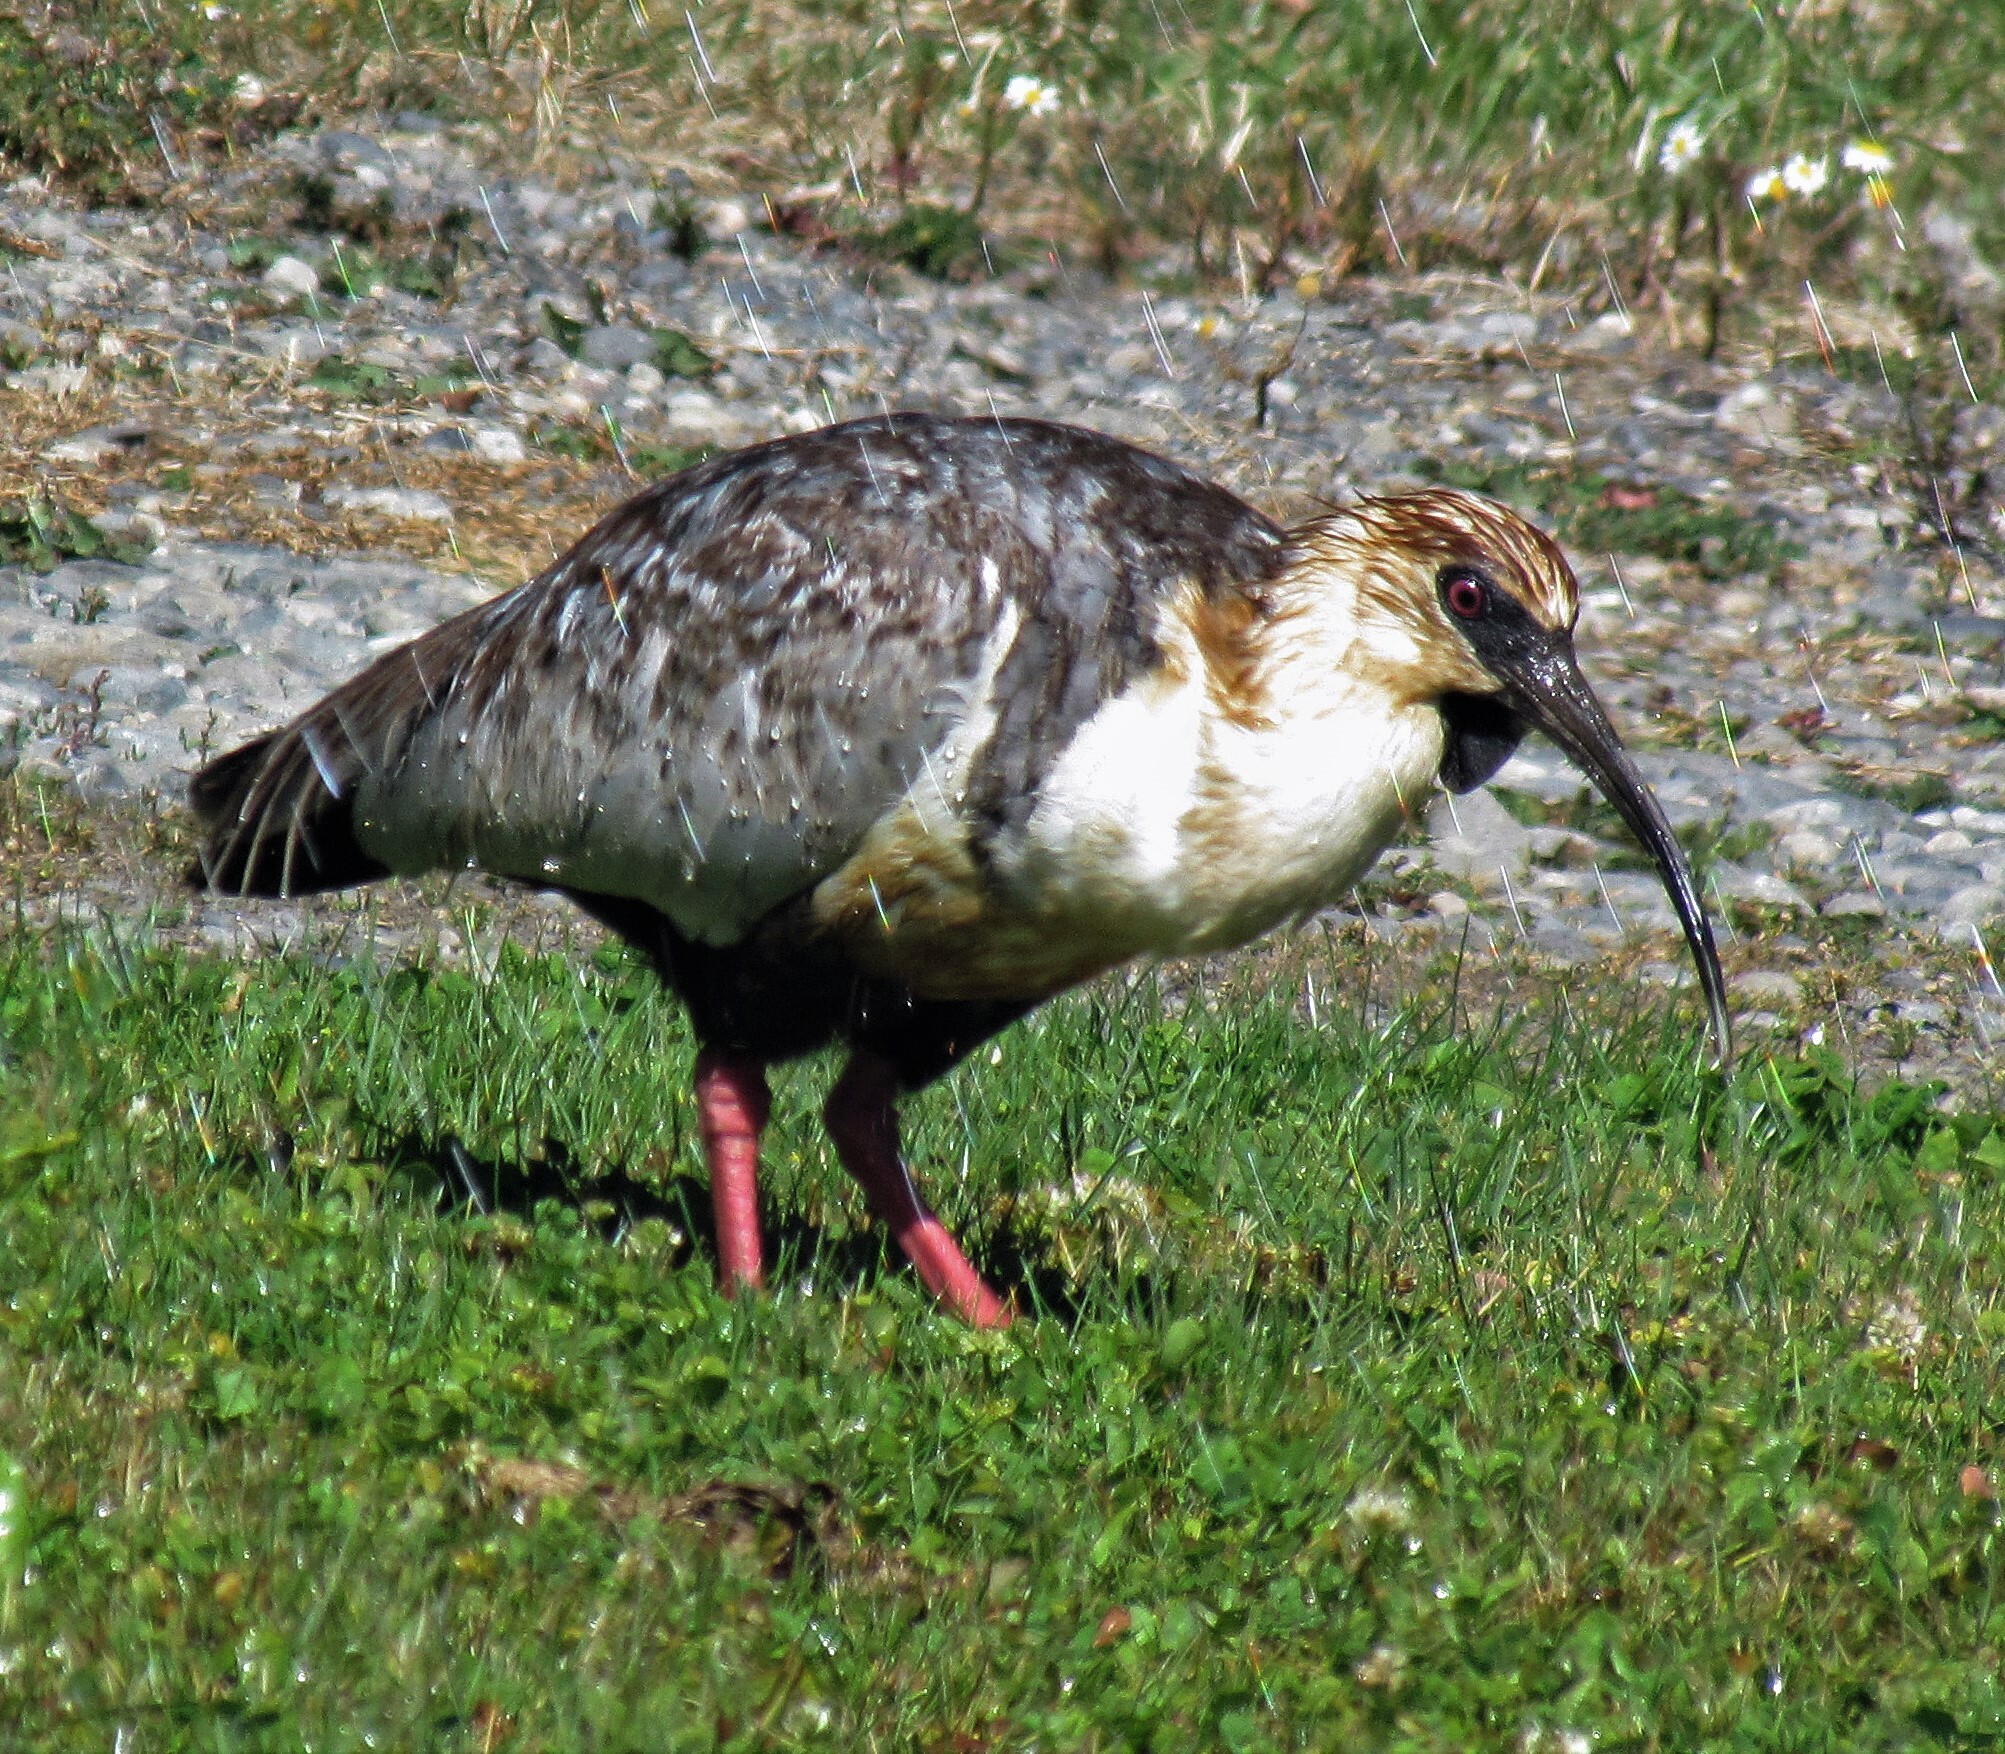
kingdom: Animalia
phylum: Chordata
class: Aves
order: Pelecaniformes
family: Threskiornithidae
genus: Theristicus
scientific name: Theristicus melanopis
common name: Black-faced ibis
